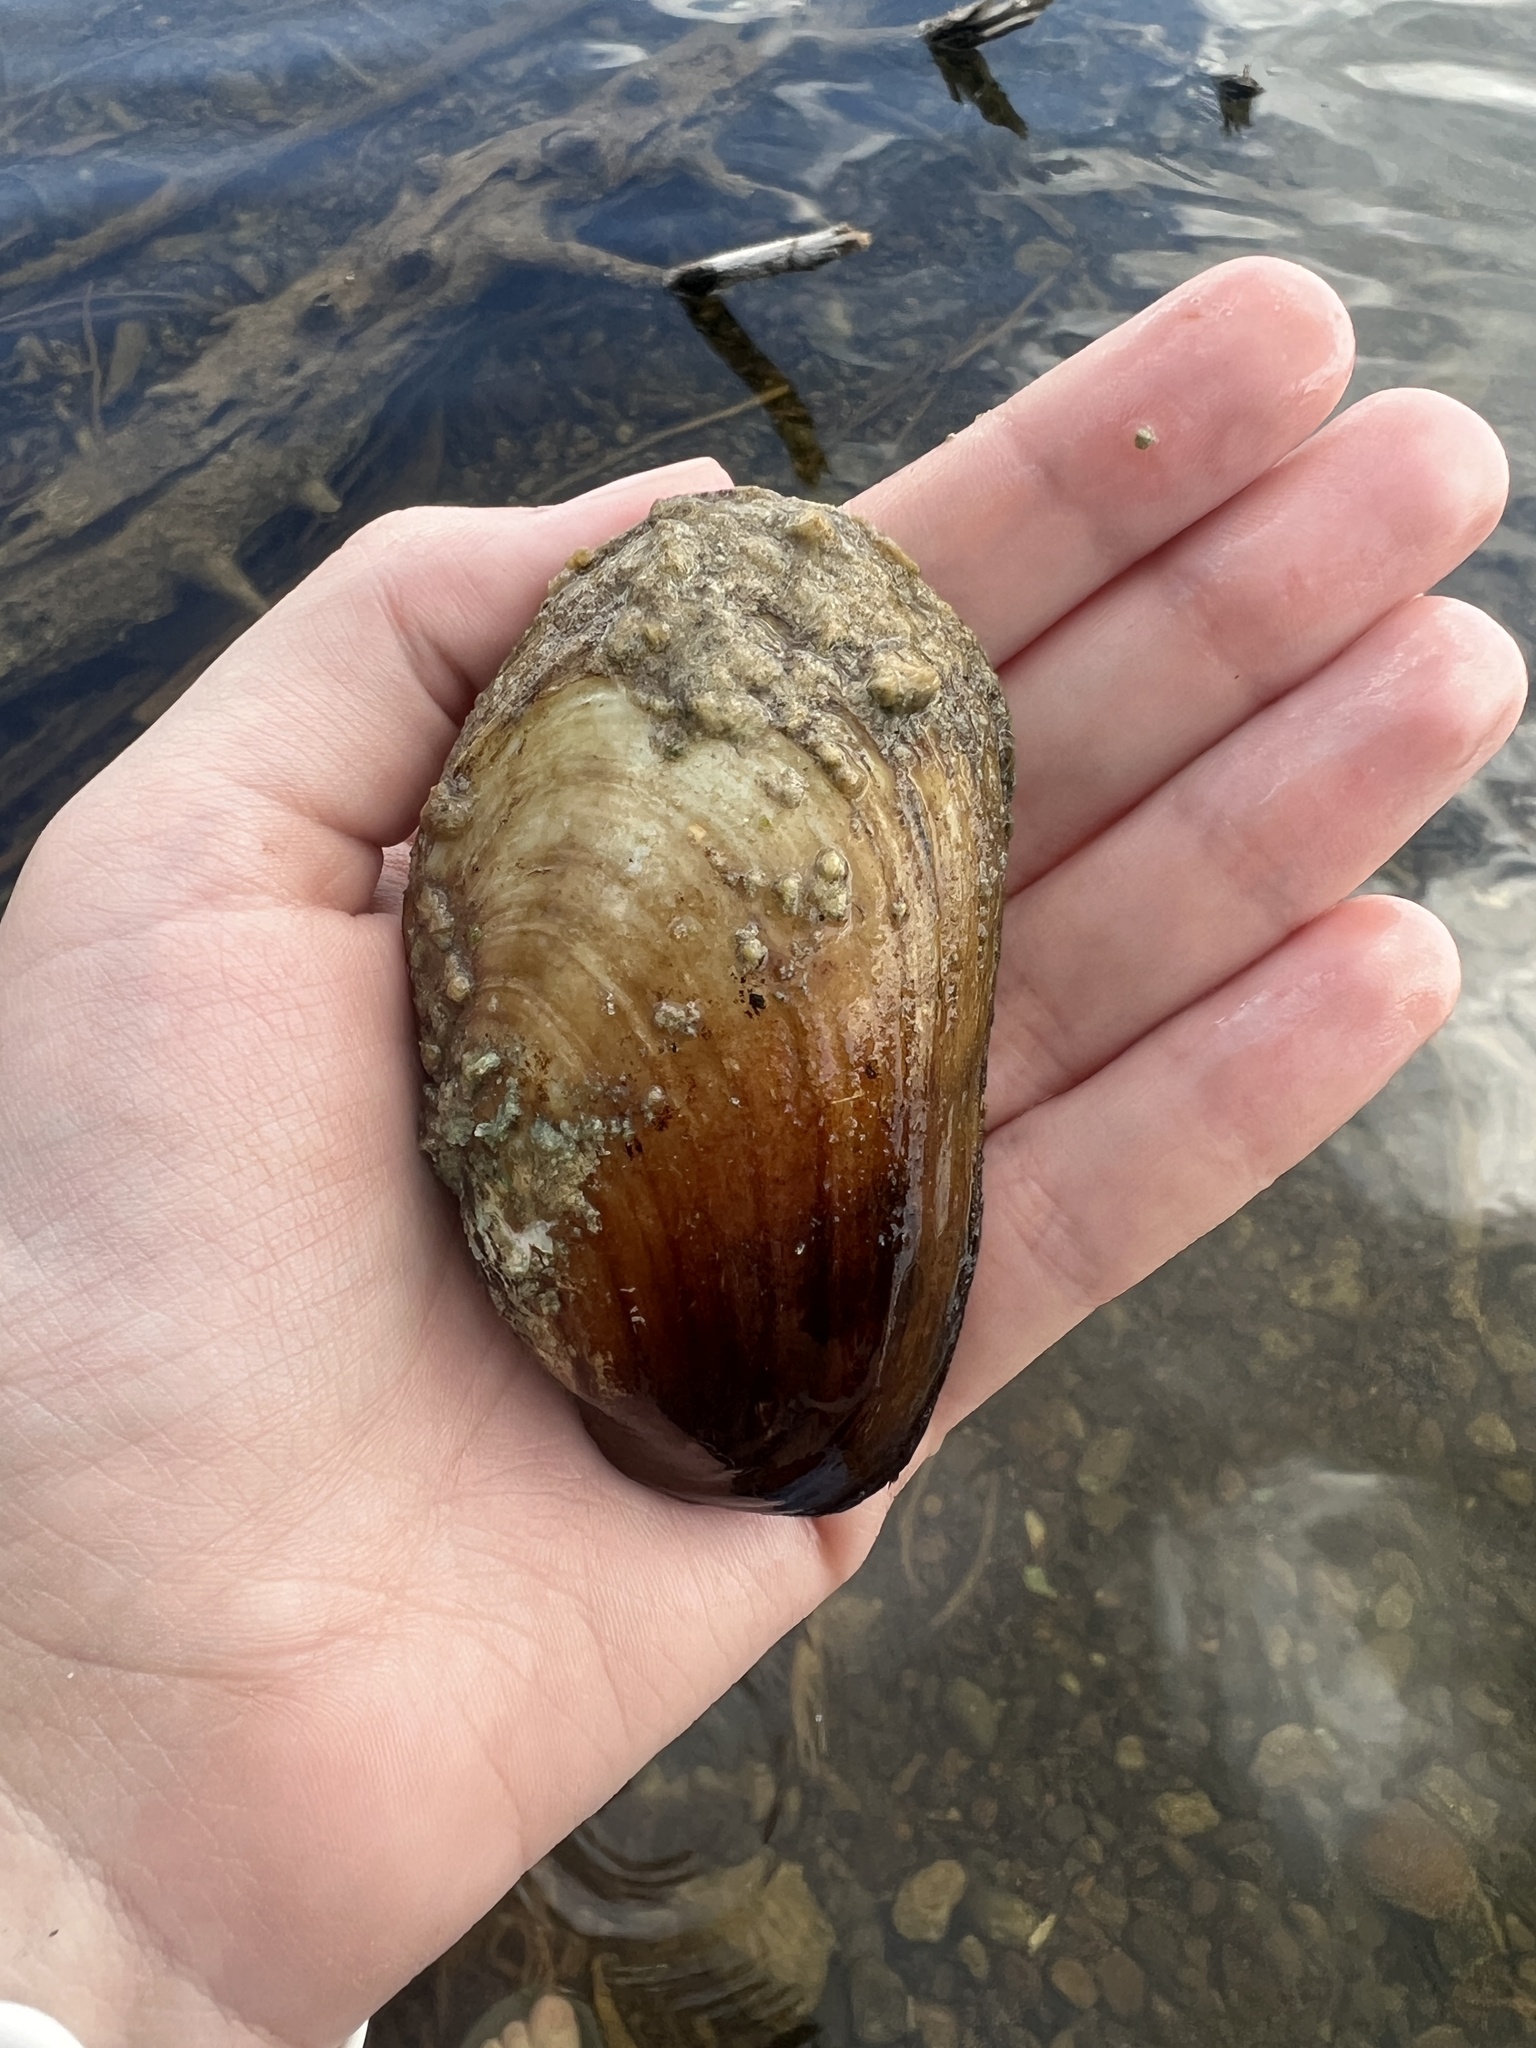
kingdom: Animalia
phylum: Mollusca
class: Bivalvia
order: Unionida
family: Unionidae
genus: Lampsilis
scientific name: Lampsilis siliquoidea
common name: Fatmucket
